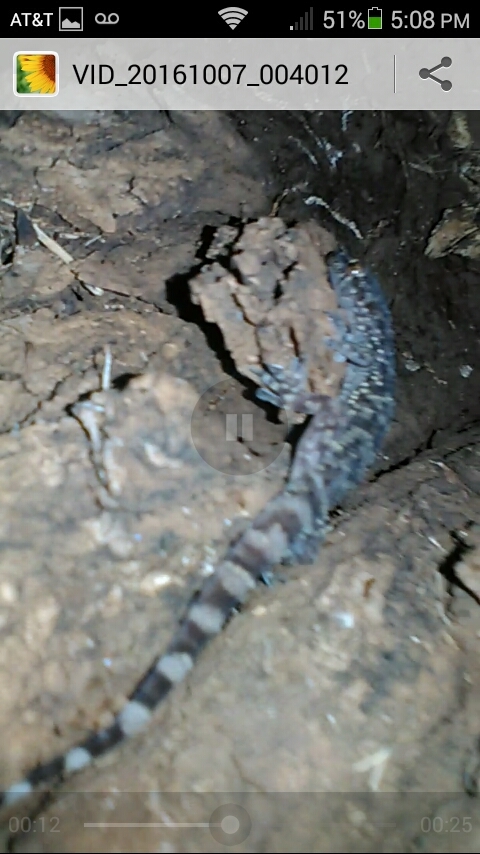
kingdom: Animalia
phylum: Chordata
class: Squamata
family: Gekkonidae
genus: Hemidactylus
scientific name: Hemidactylus turcicus
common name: Turkish gecko
